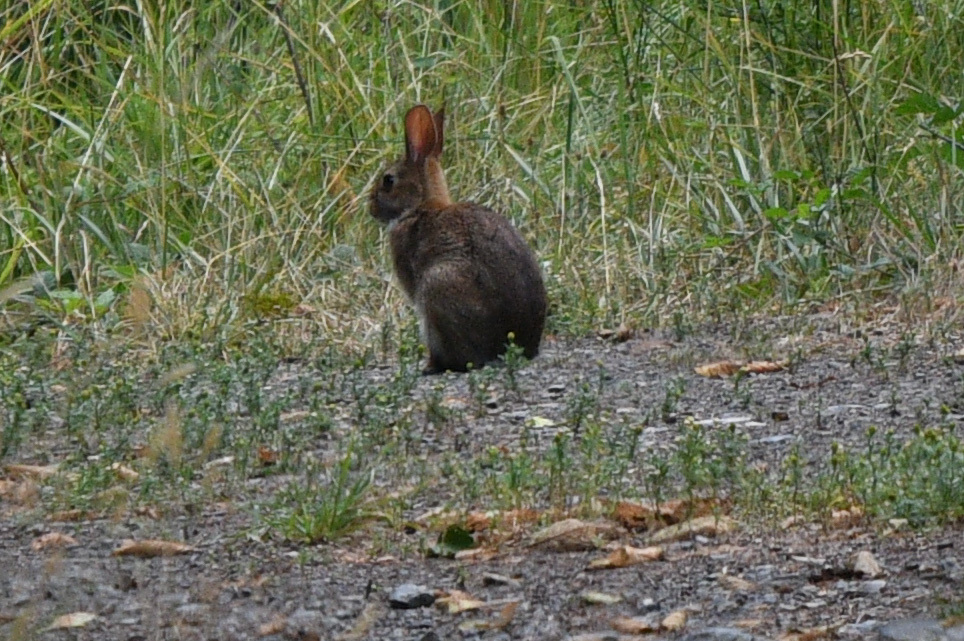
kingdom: Animalia
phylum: Chordata
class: Mammalia
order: Lagomorpha
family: Leporidae
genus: Oryctolagus
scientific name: Oryctolagus cuniculus
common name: European rabbit
